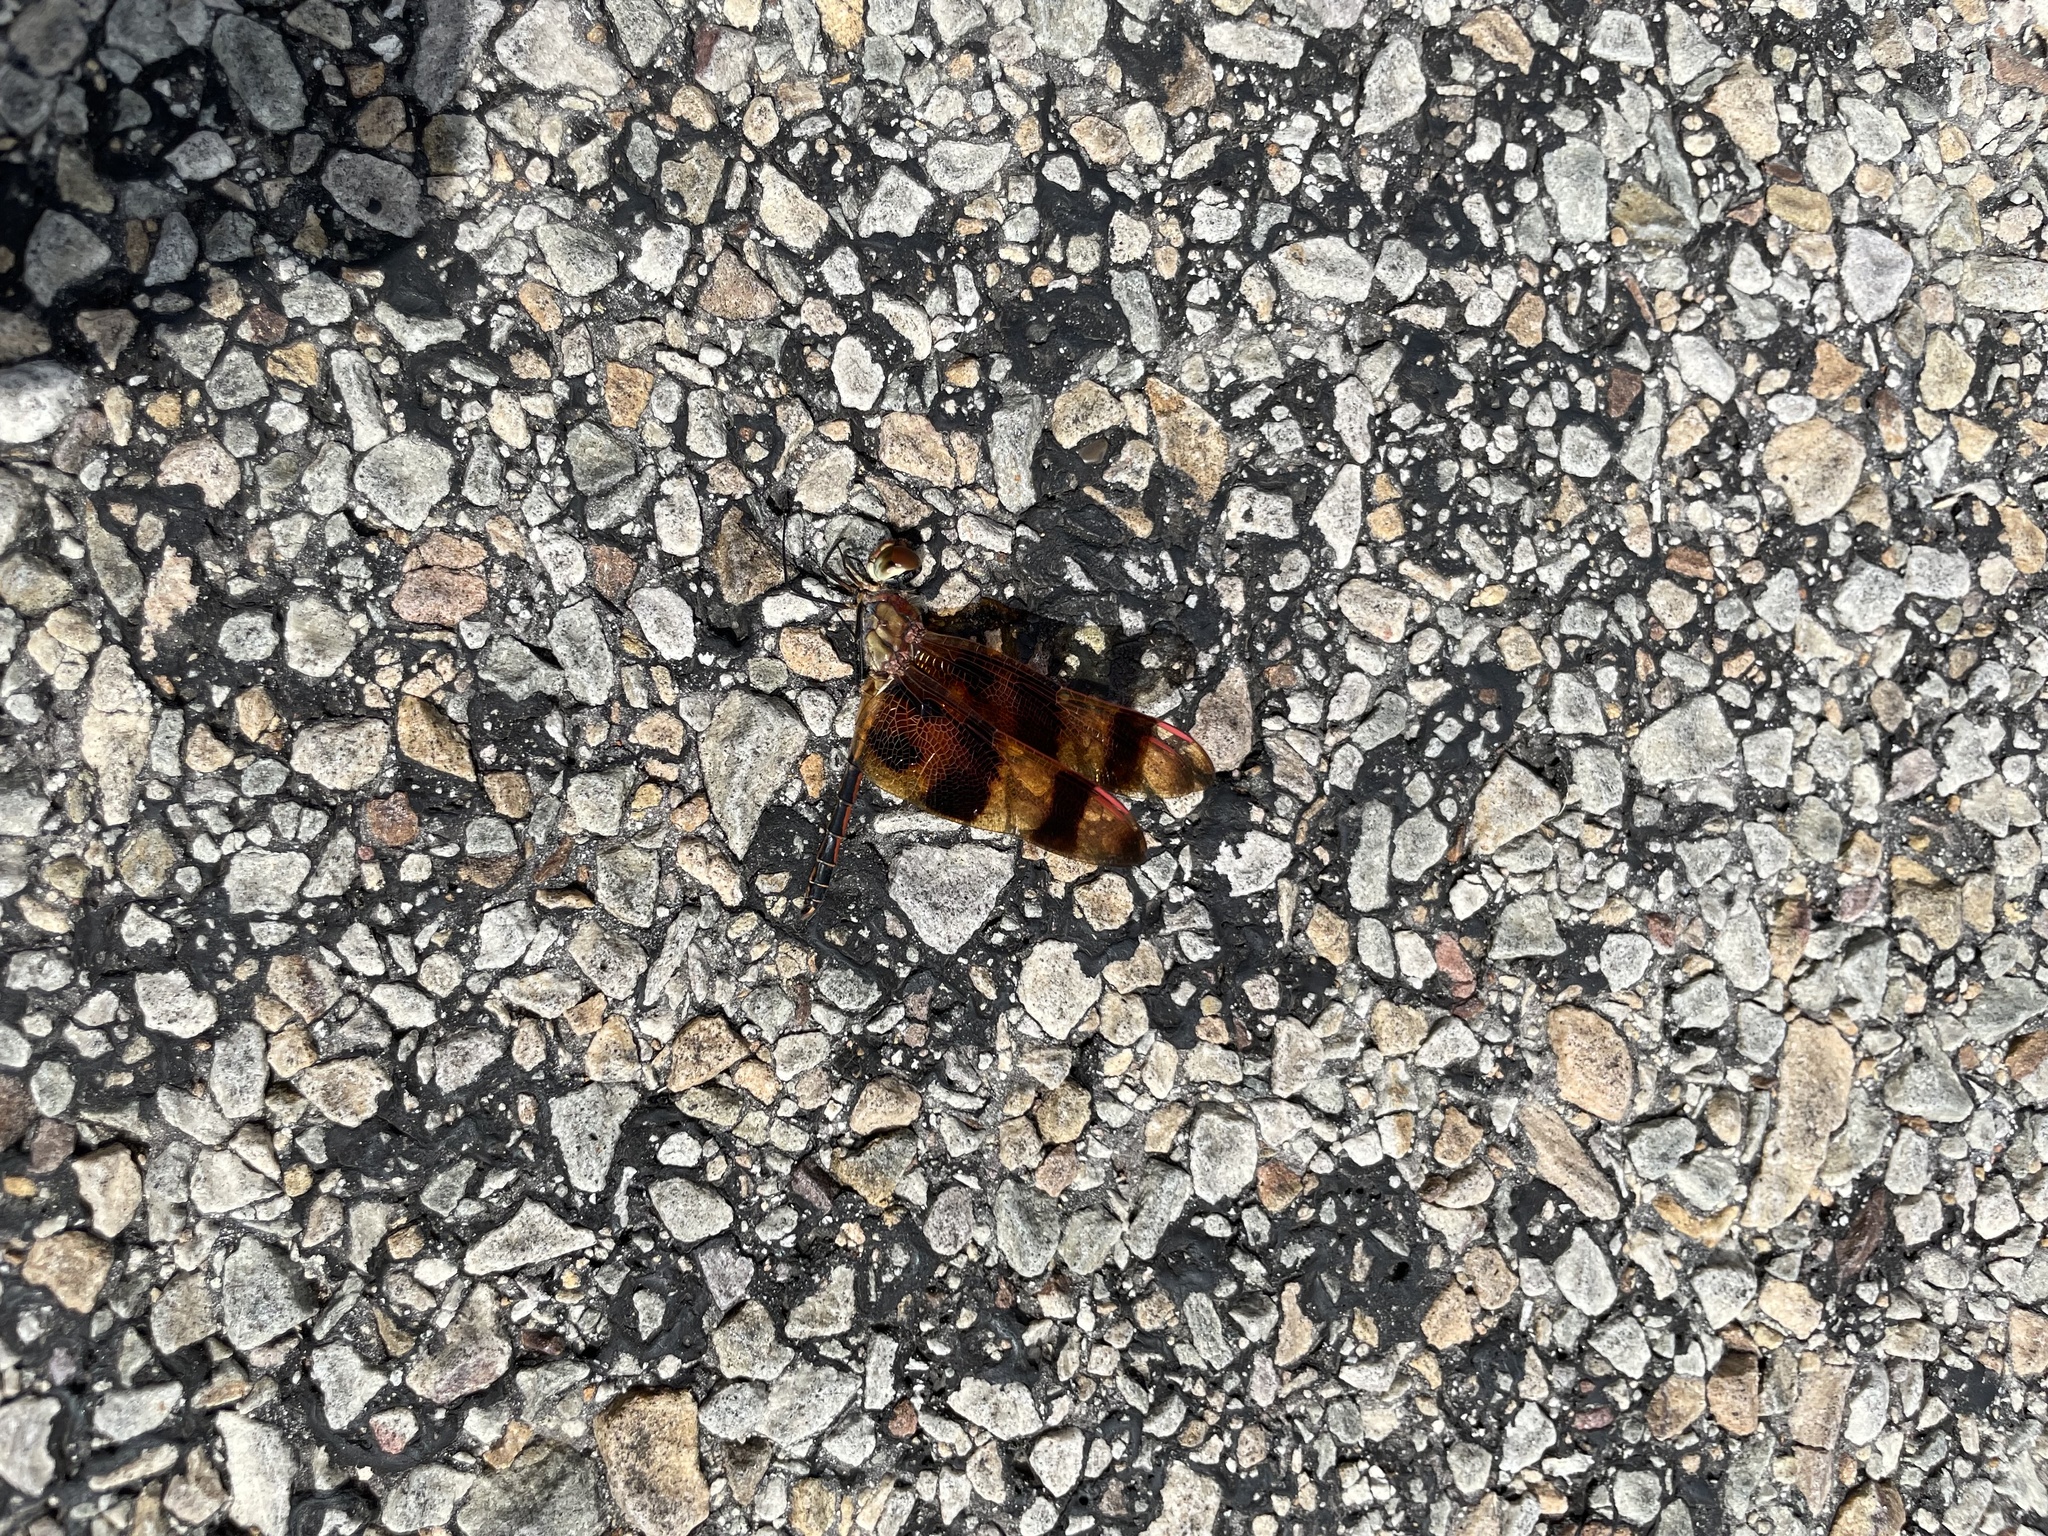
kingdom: Animalia
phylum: Arthropoda
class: Insecta
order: Odonata
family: Libellulidae
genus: Celithemis
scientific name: Celithemis eponina
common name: Halloween pennant
